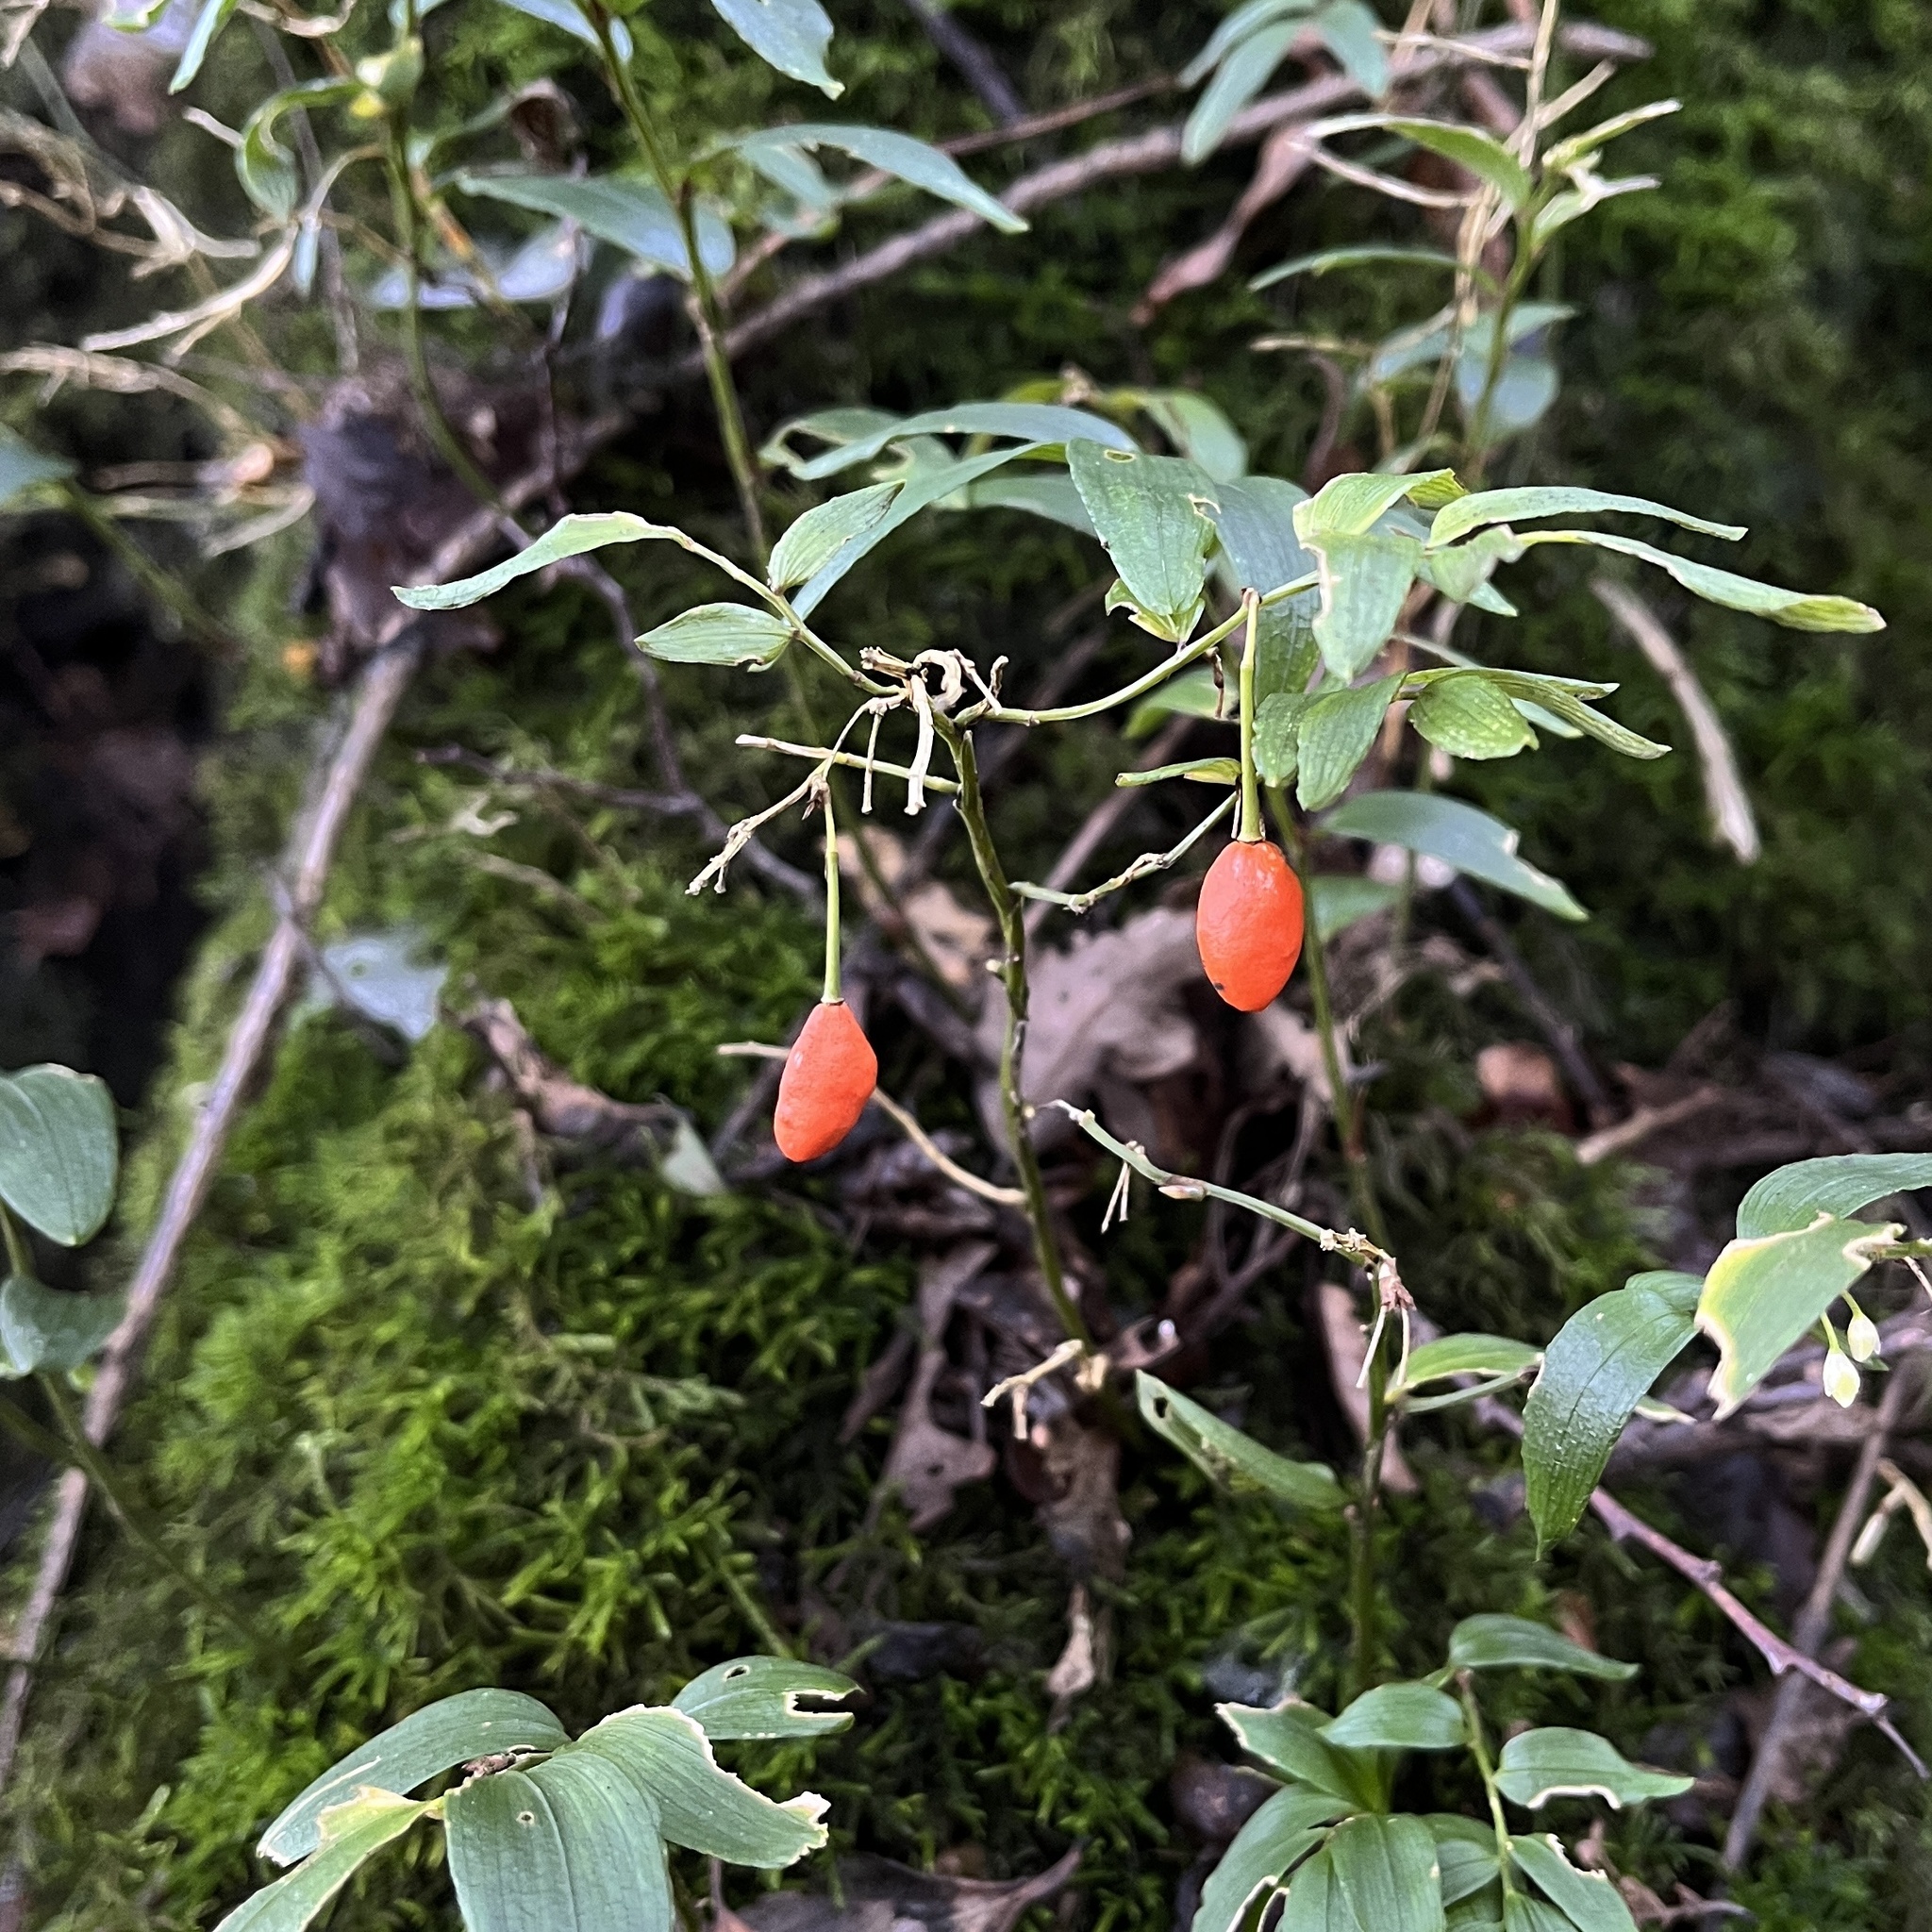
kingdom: Plantae
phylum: Tracheophyta
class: Liliopsida
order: Liliales
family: Alstroemeriaceae
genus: Luzuriaga
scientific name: Luzuriaga radicans
